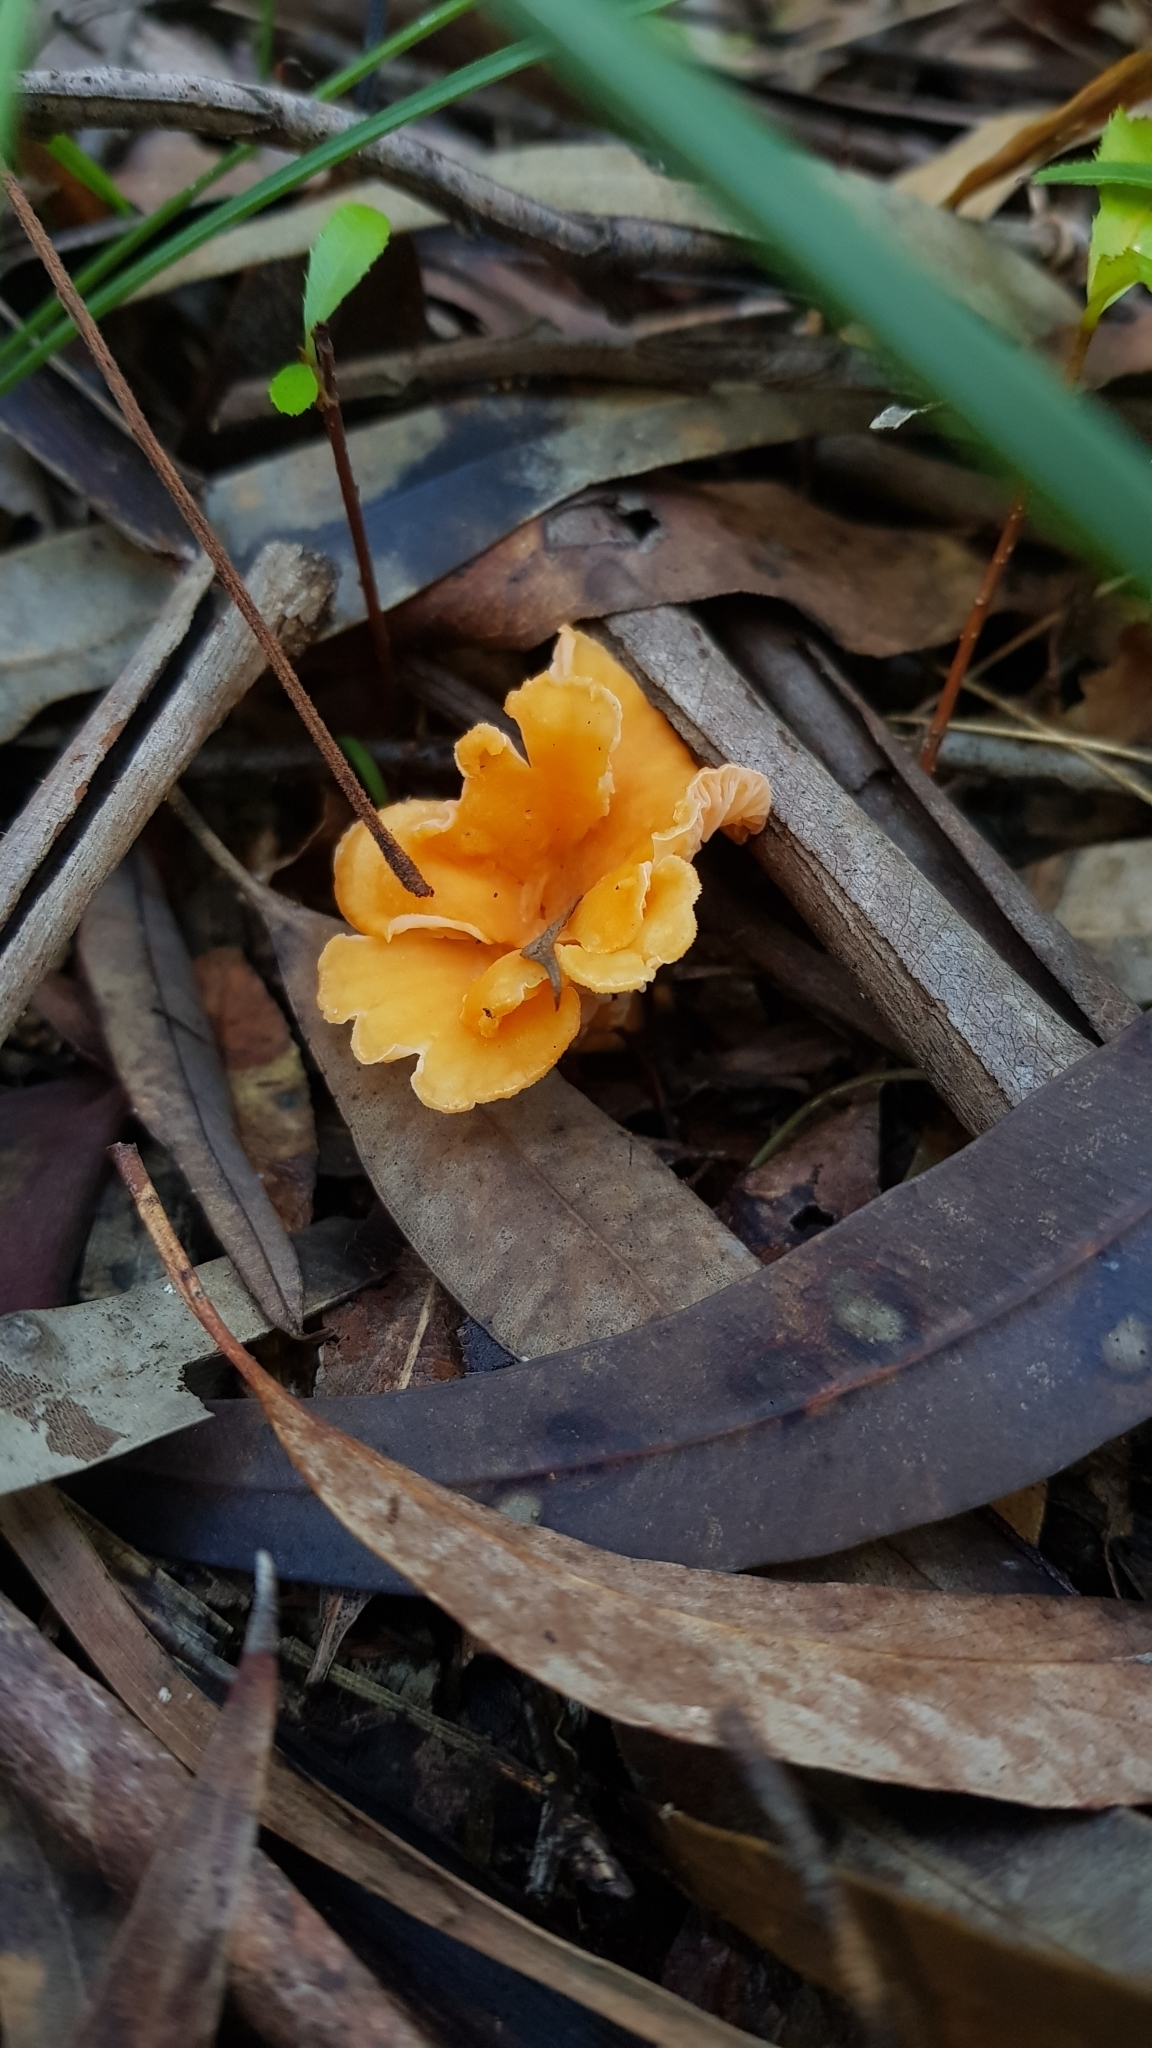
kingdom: Fungi
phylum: Basidiomycota
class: Agaricomycetes
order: Cantharellales
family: Hydnaceae
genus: Cantharellus
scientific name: Cantharellus
